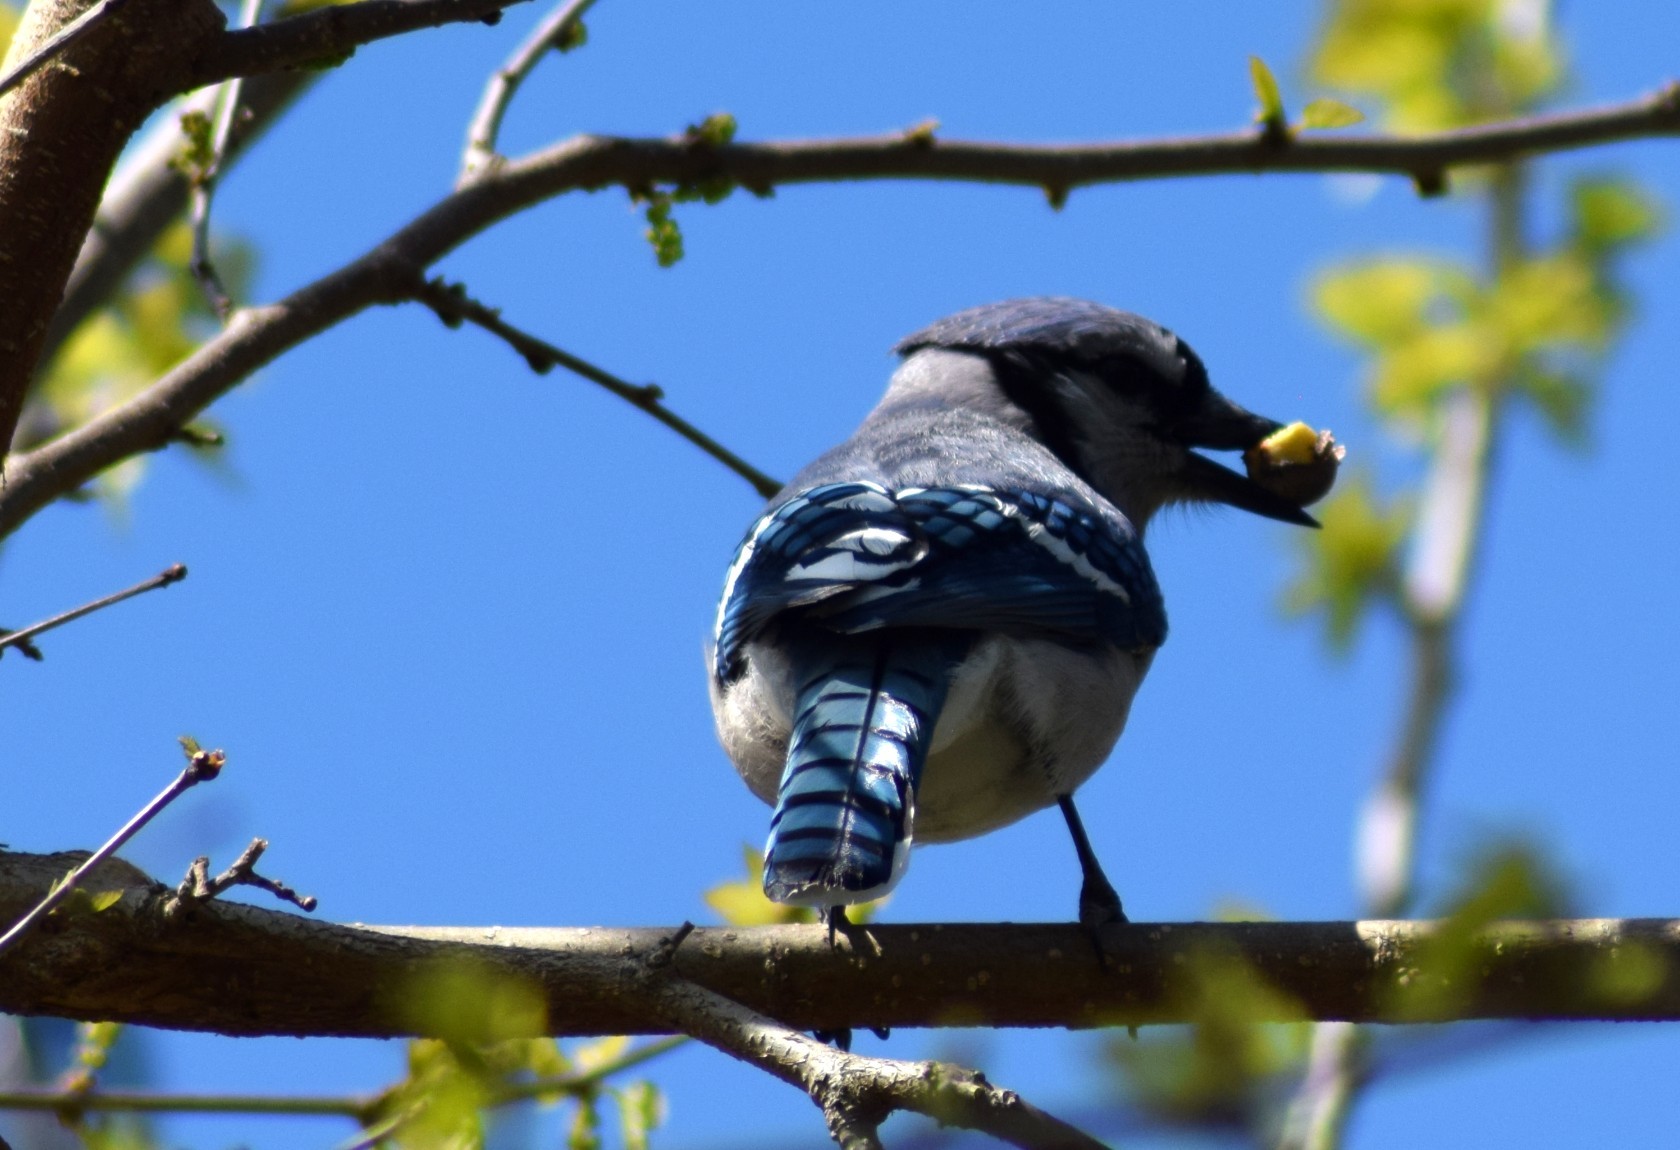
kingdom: Animalia
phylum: Chordata
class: Aves
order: Passeriformes
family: Corvidae
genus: Cyanocitta
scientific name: Cyanocitta cristata
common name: Blue jay
